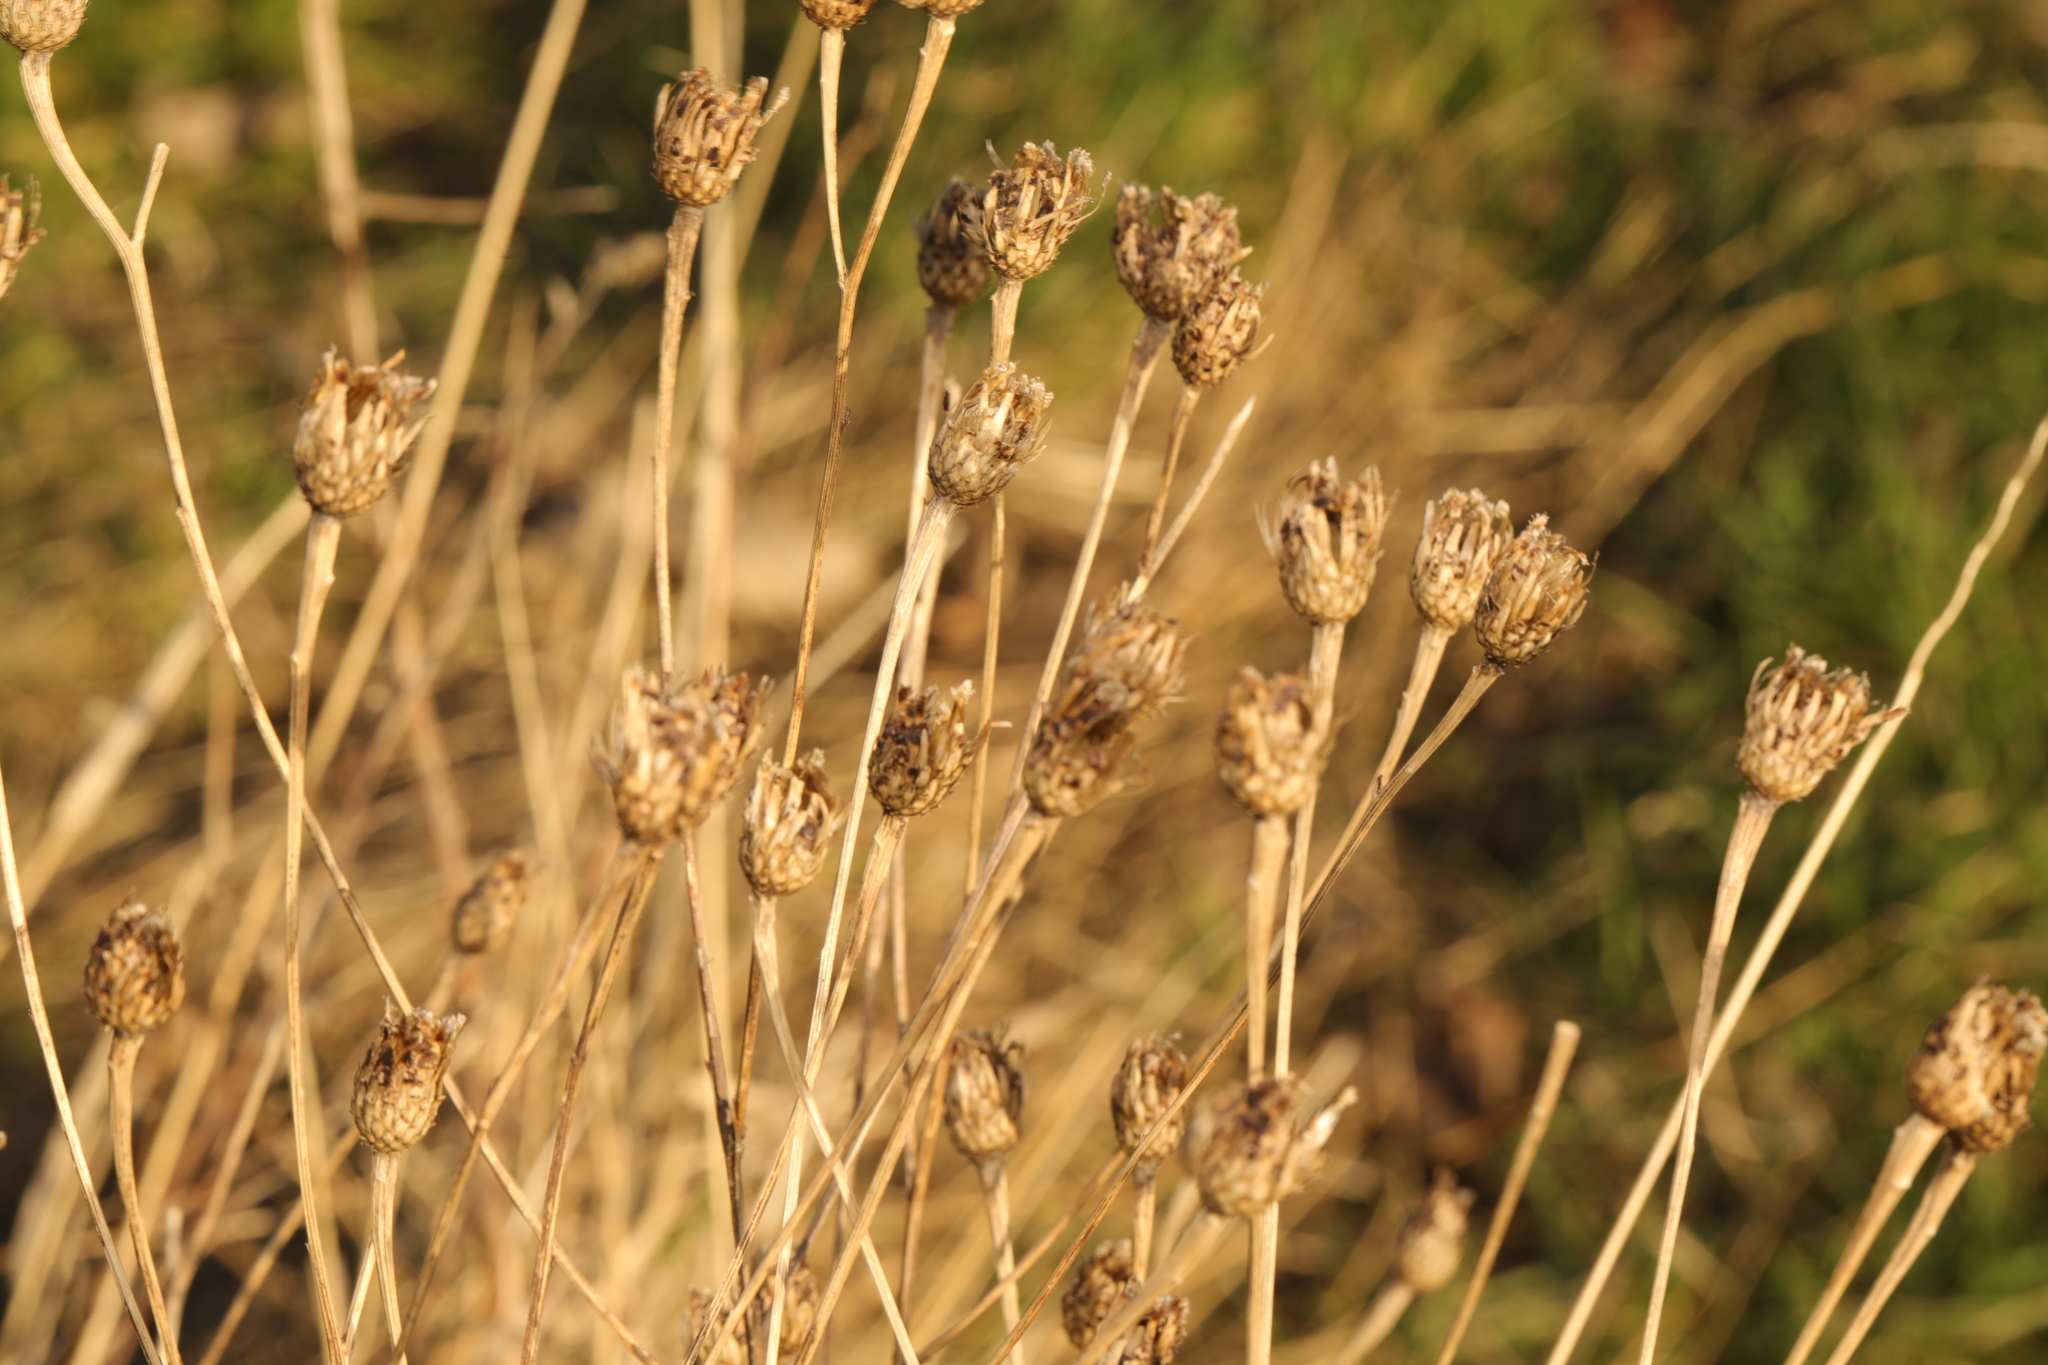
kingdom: Plantae
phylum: Tracheophyta
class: Magnoliopsida
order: Asterales
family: Asteraceae
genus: Centaurea
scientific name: Centaurea nigra
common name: Lesser knapweed
